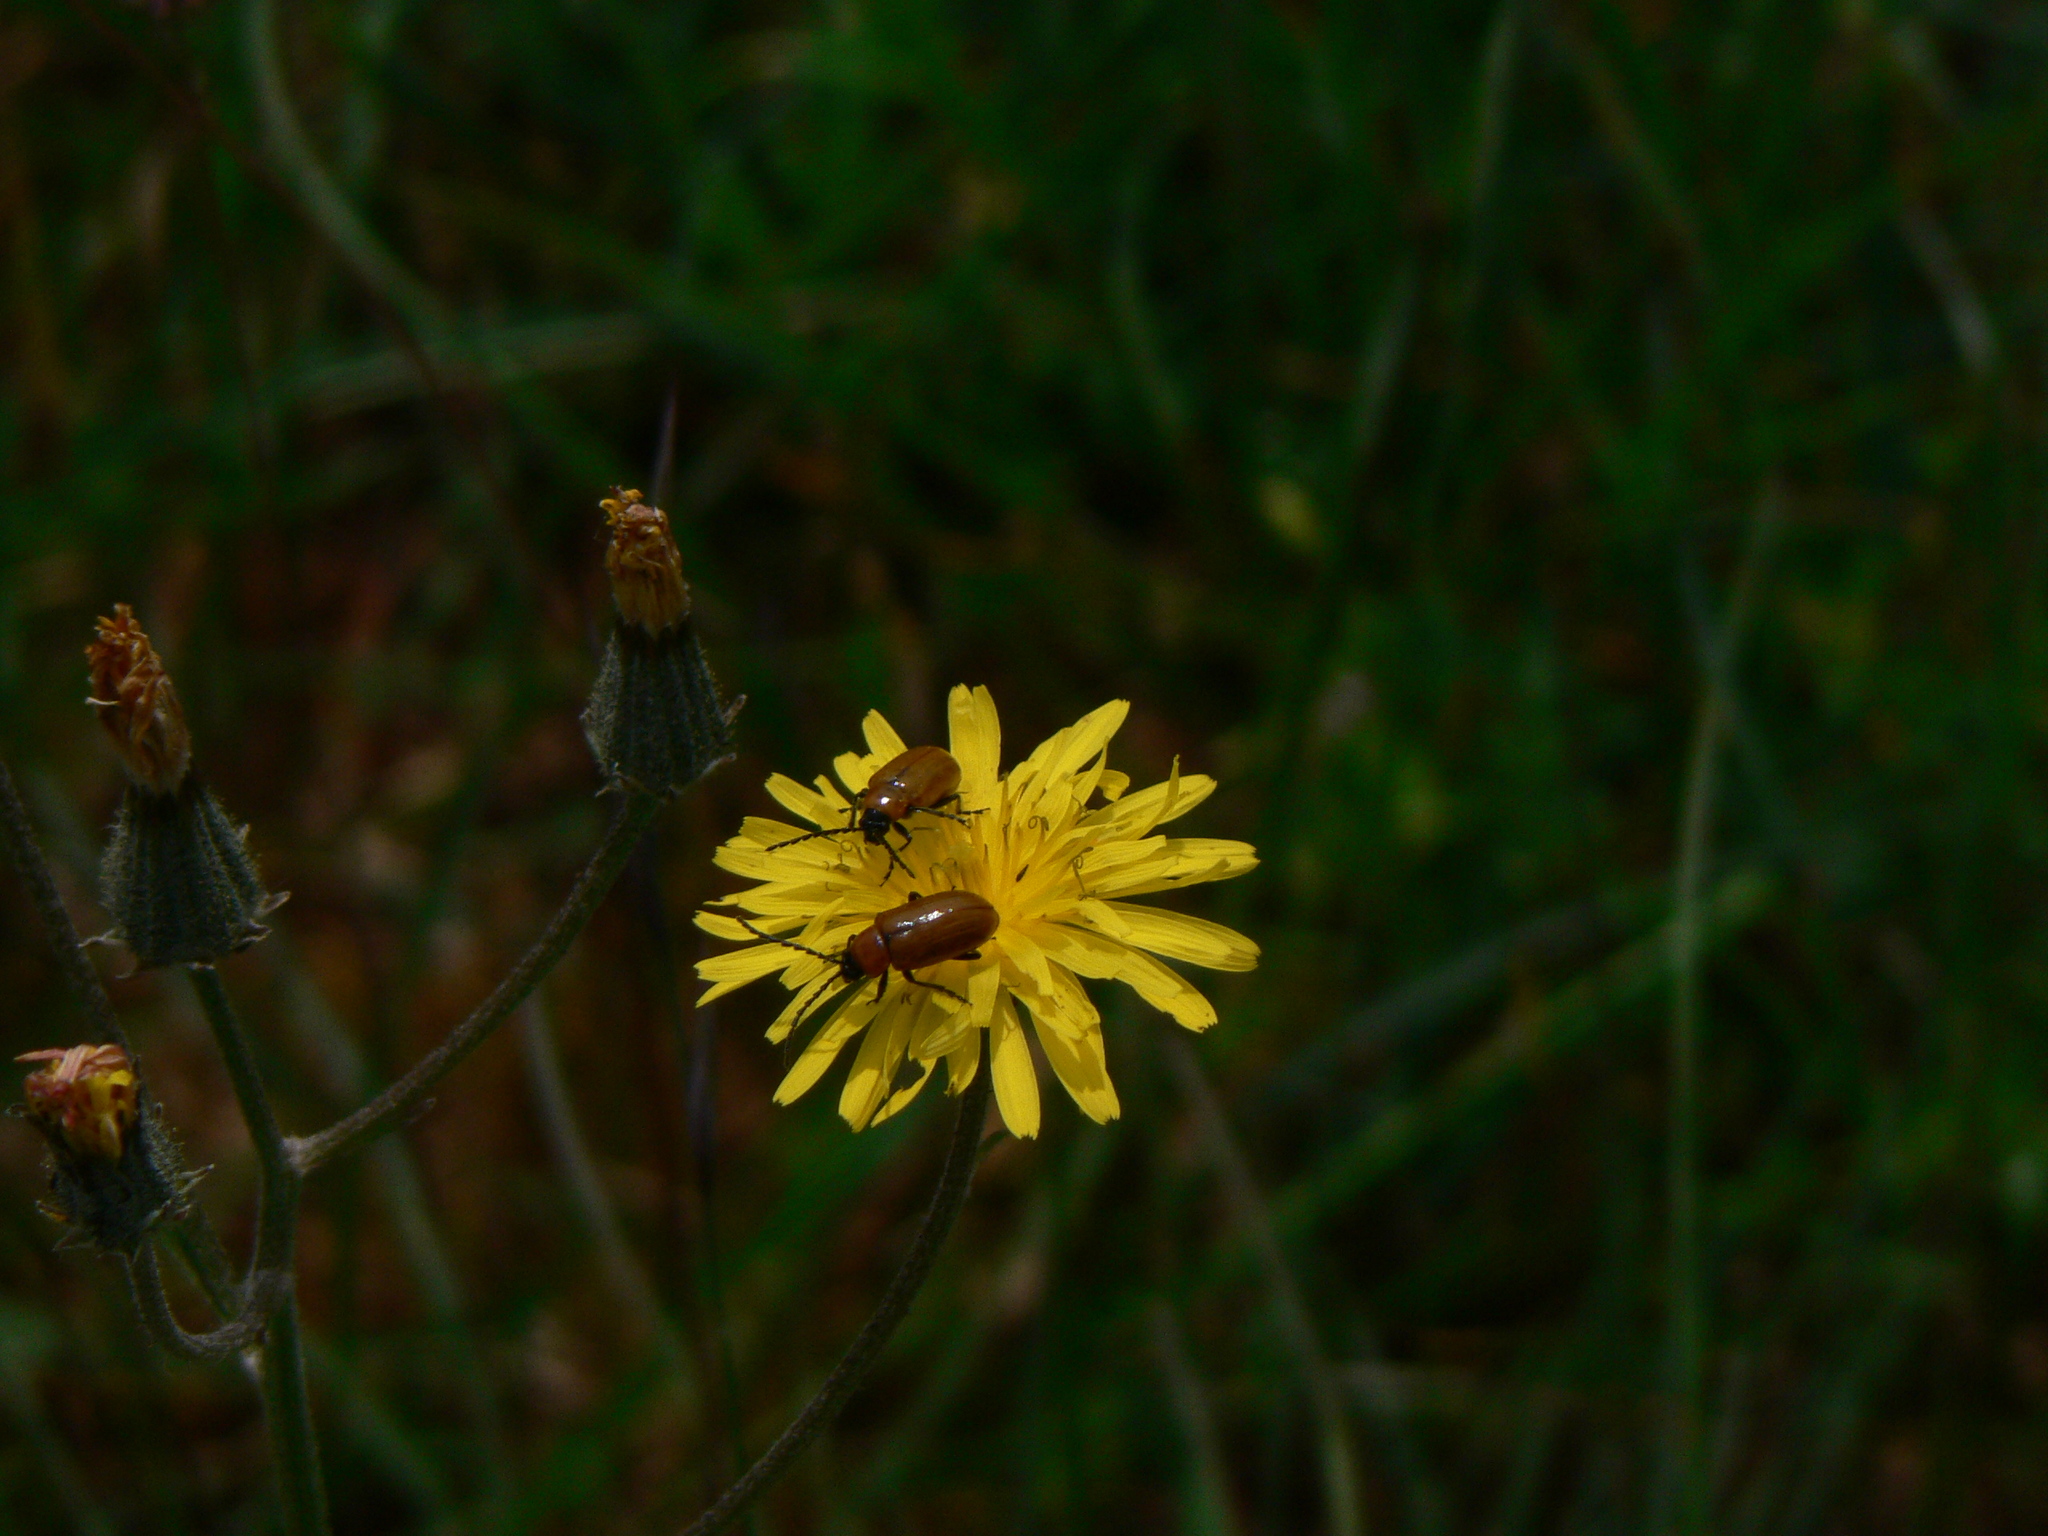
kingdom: Animalia
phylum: Arthropoda
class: Insecta
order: Coleoptera
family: Chrysomelidae
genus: Exosoma
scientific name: Exosoma lusitanicum
